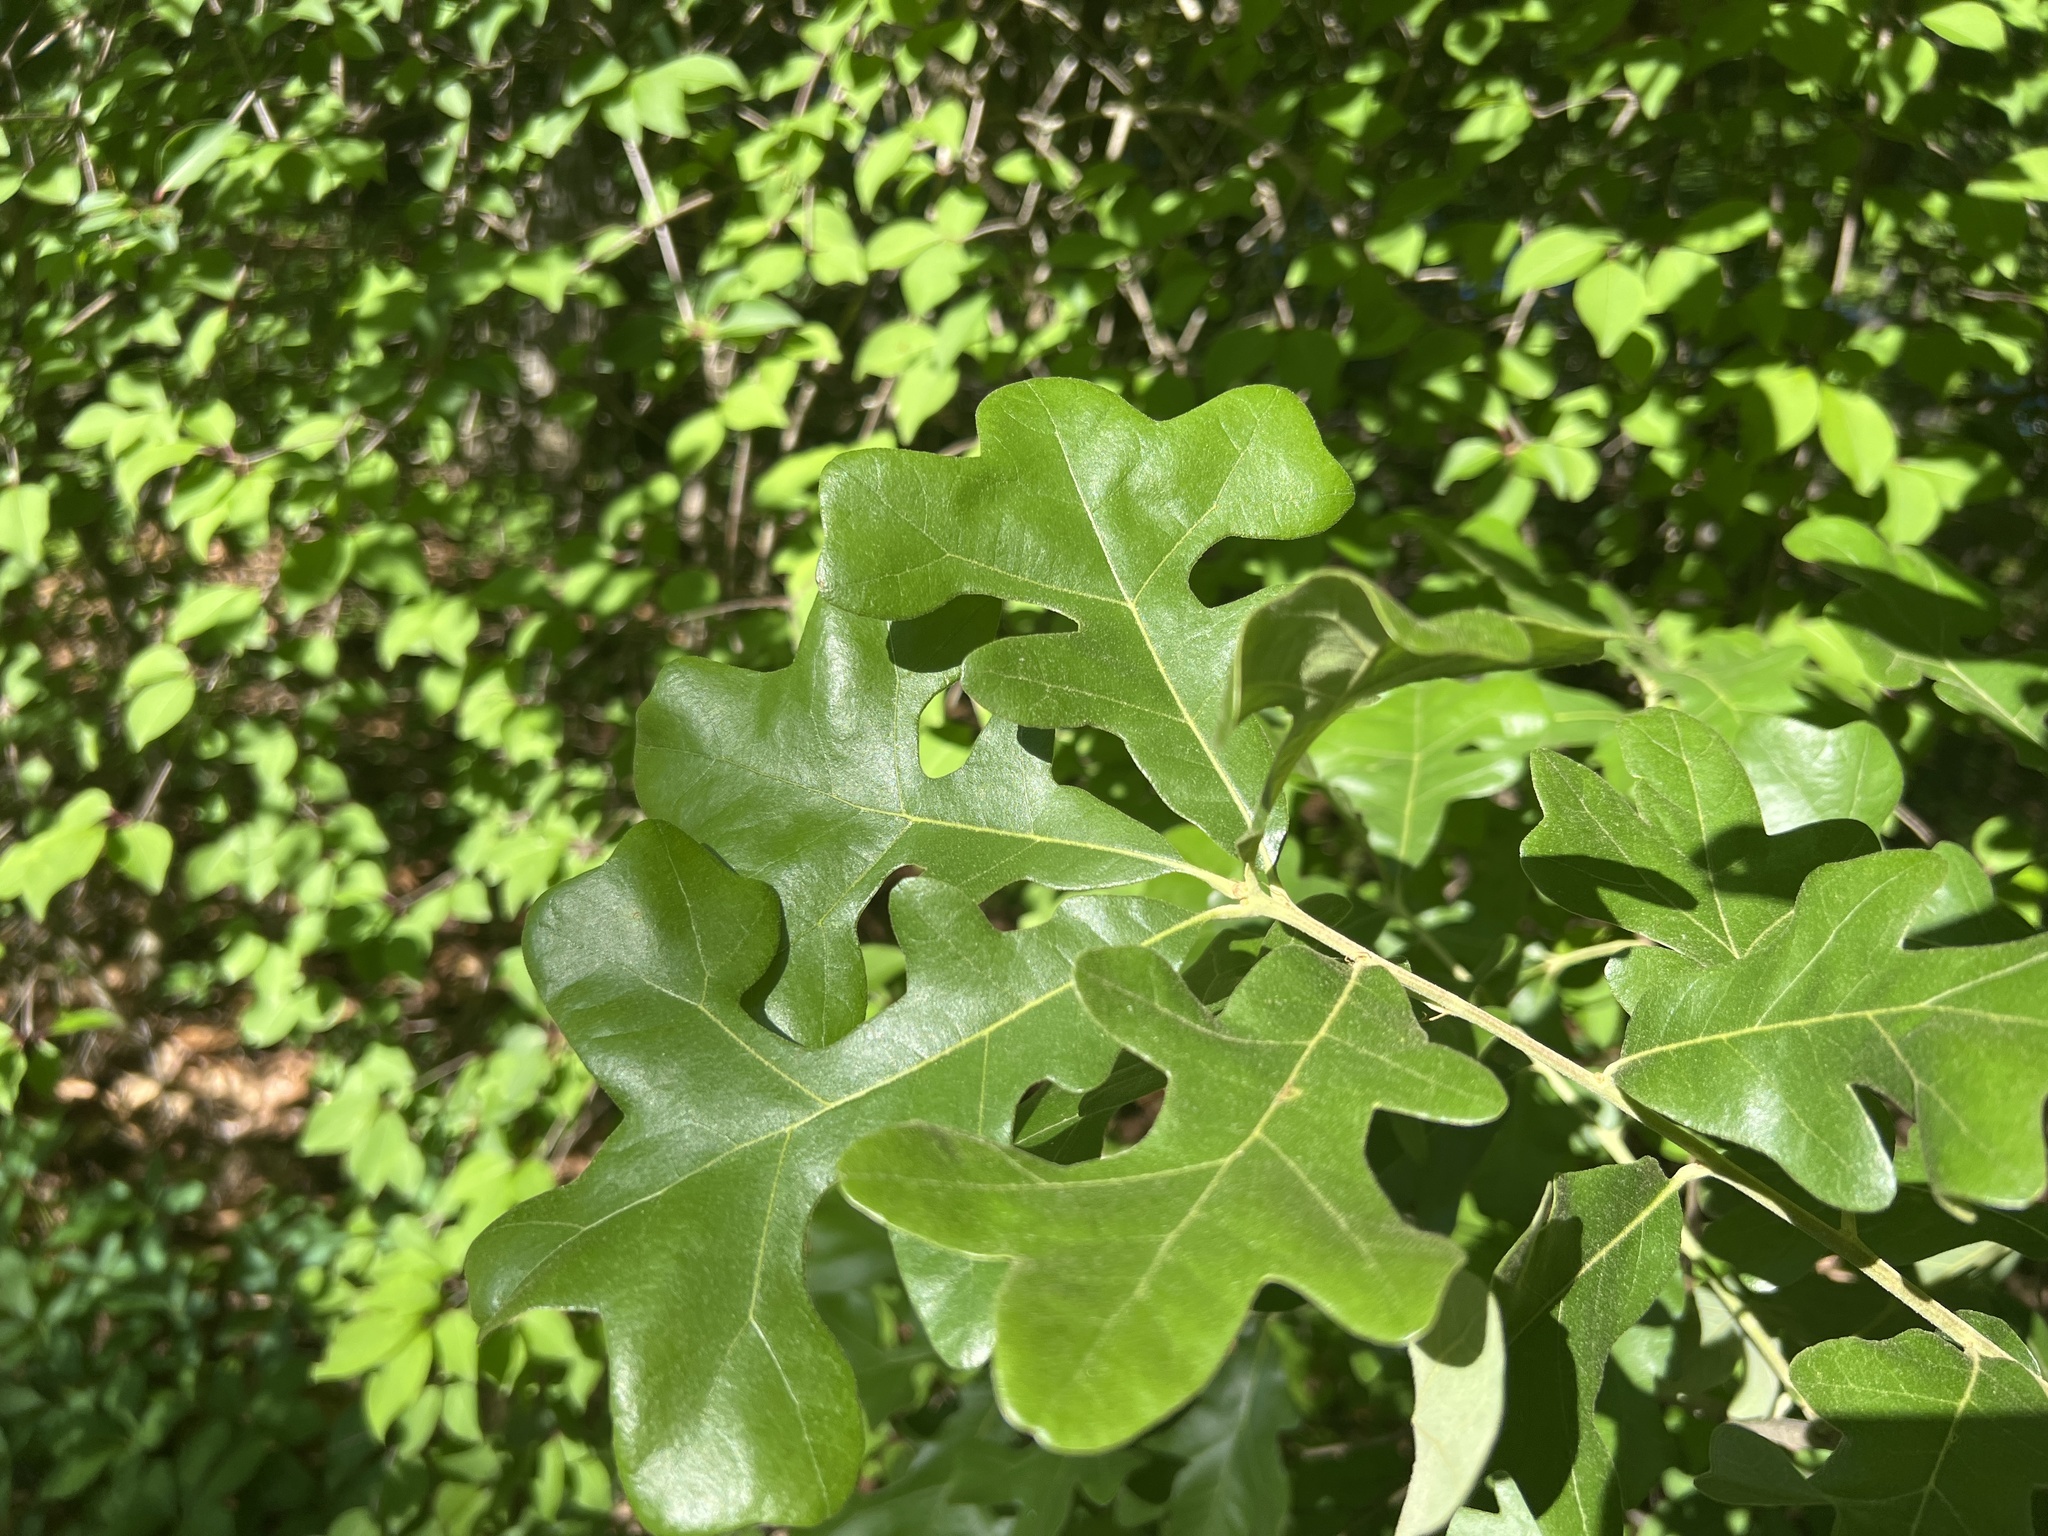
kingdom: Plantae
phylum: Tracheophyta
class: Magnoliopsida
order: Fagales
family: Fagaceae
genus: Quercus
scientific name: Quercus stellata
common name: Post oak
